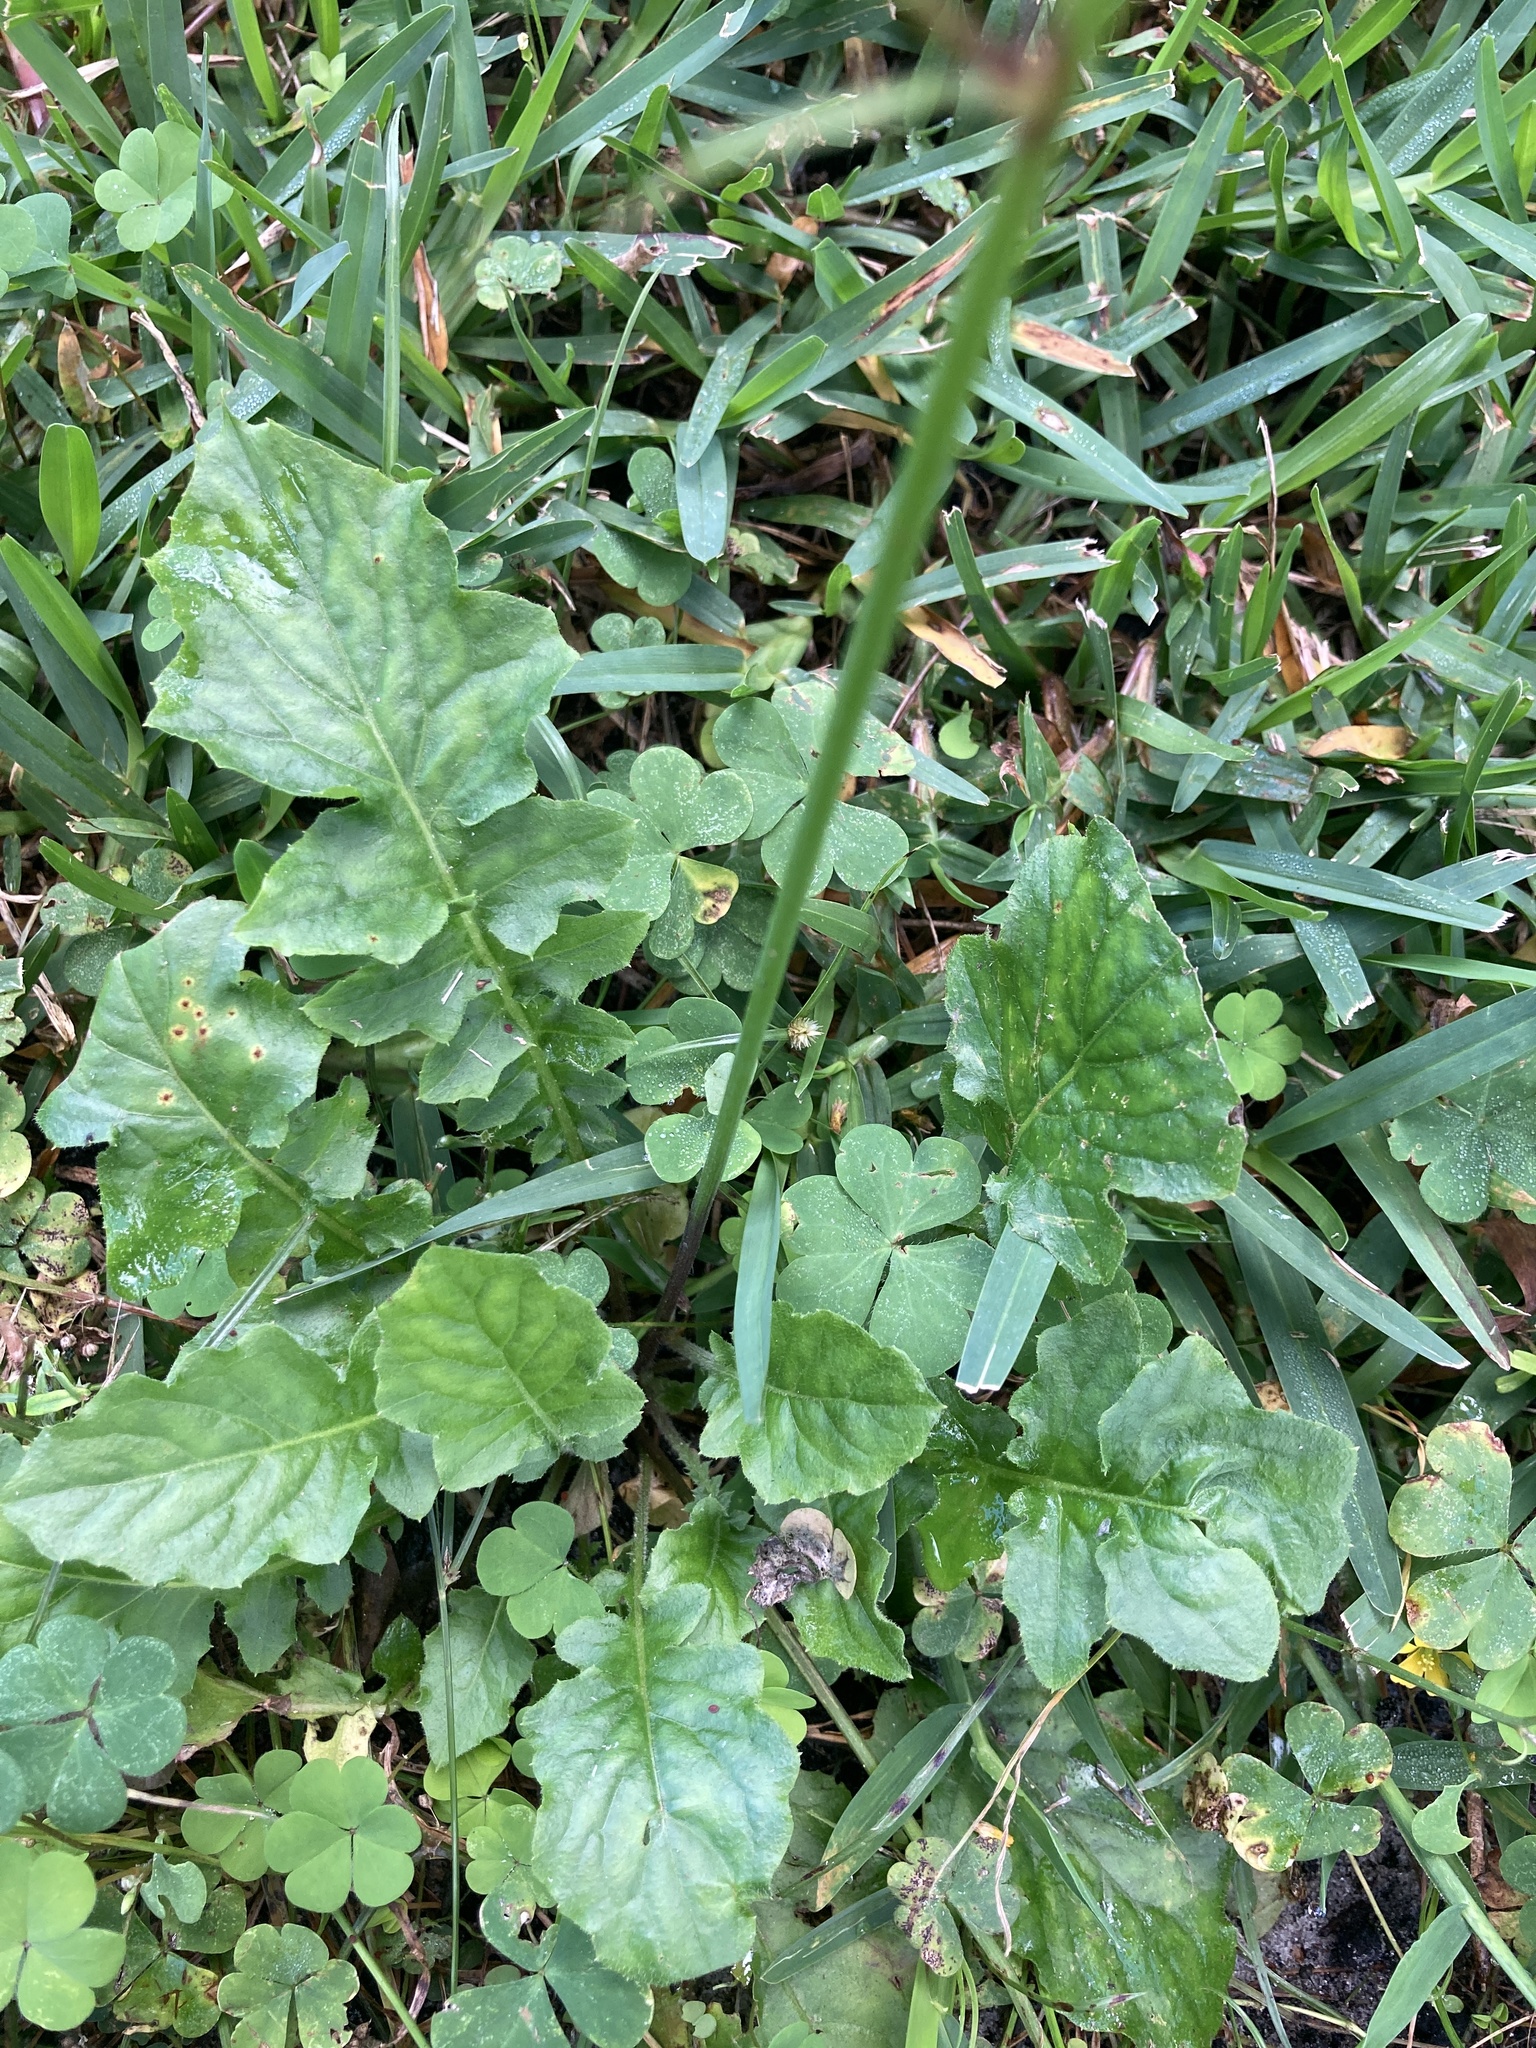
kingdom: Plantae
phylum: Tracheophyta
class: Magnoliopsida
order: Asterales
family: Asteraceae
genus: Youngia
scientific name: Youngia japonica
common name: Oriental false hawksbeard
